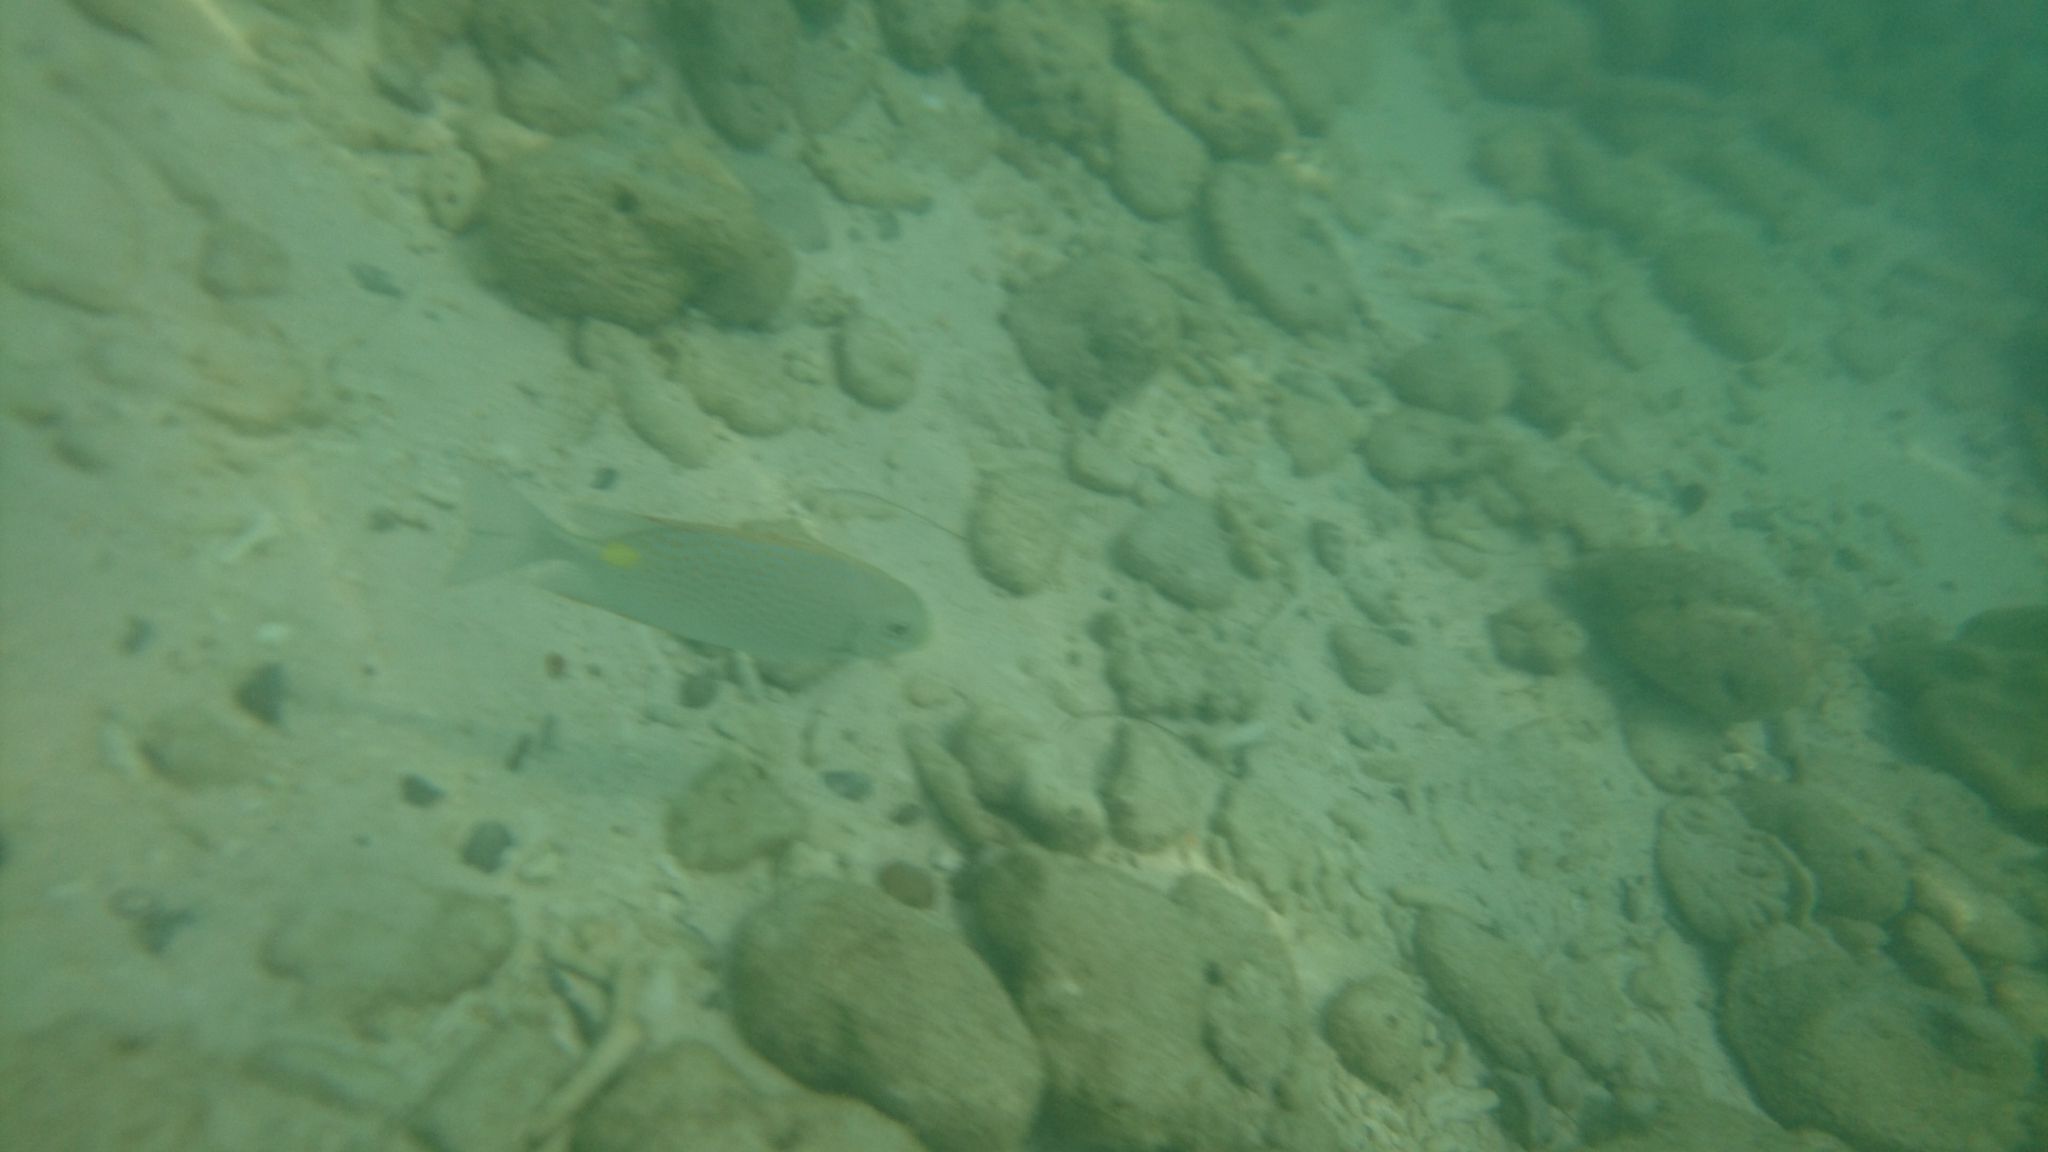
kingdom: Animalia
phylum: Chordata
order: Perciformes
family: Siganidae
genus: Siganus
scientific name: Siganus guttatus
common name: Golden rabbitfish
